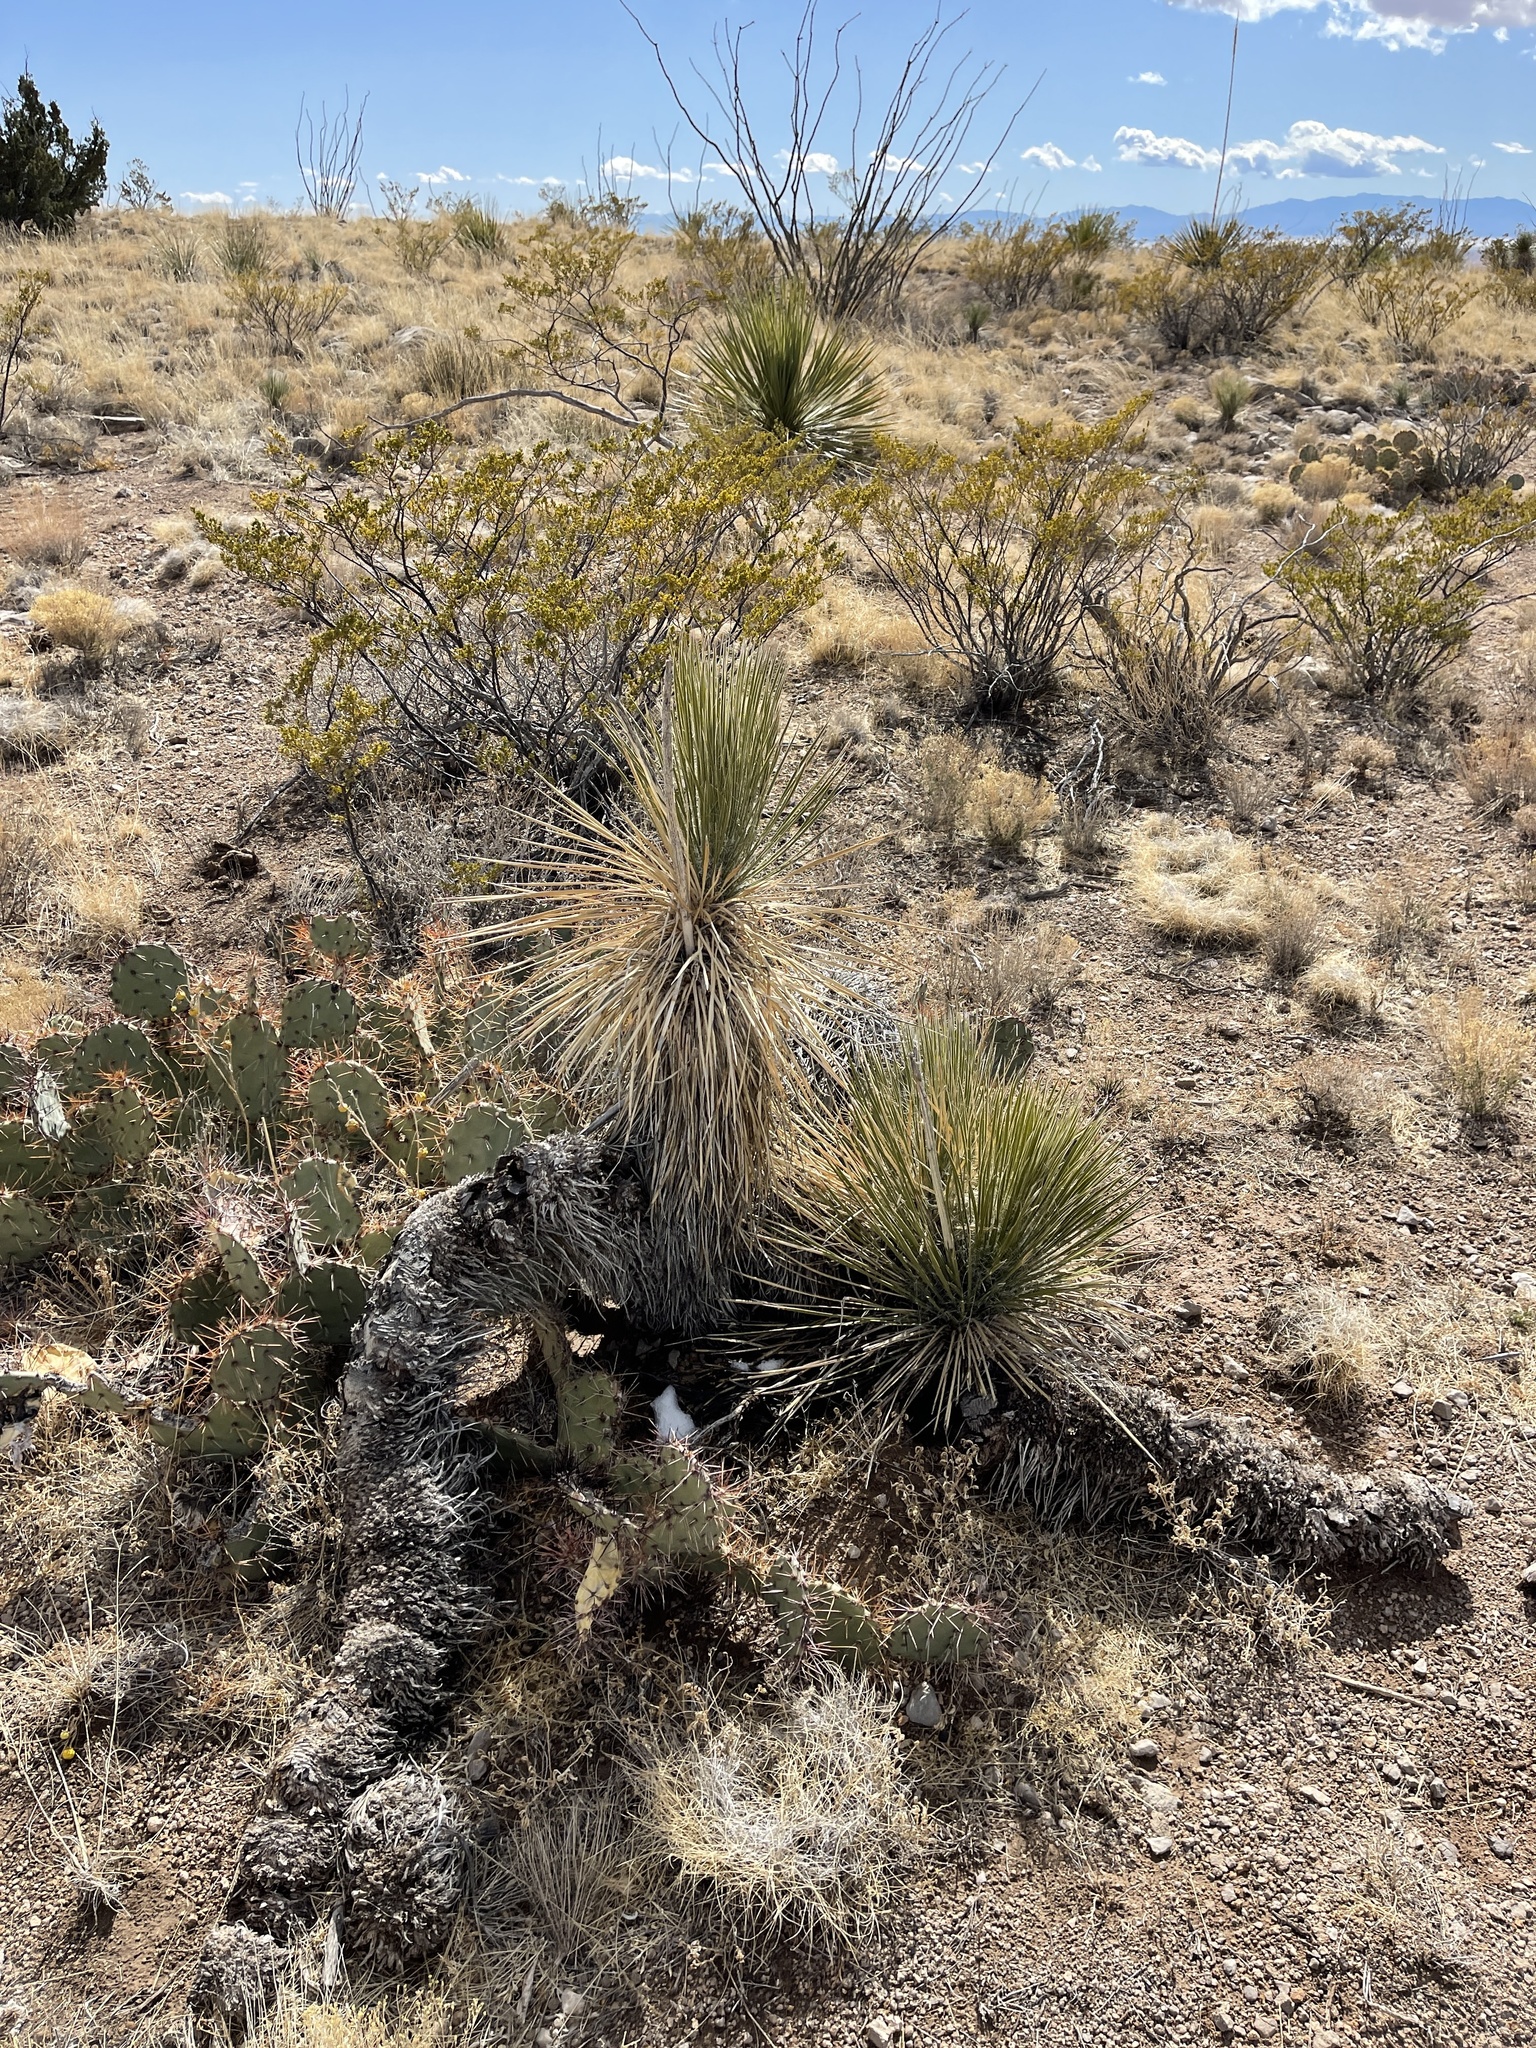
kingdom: Plantae
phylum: Tracheophyta
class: Liliopsida
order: Asparagales
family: Asparagaceae
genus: Yucca
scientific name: Yucca elata
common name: Palmella
